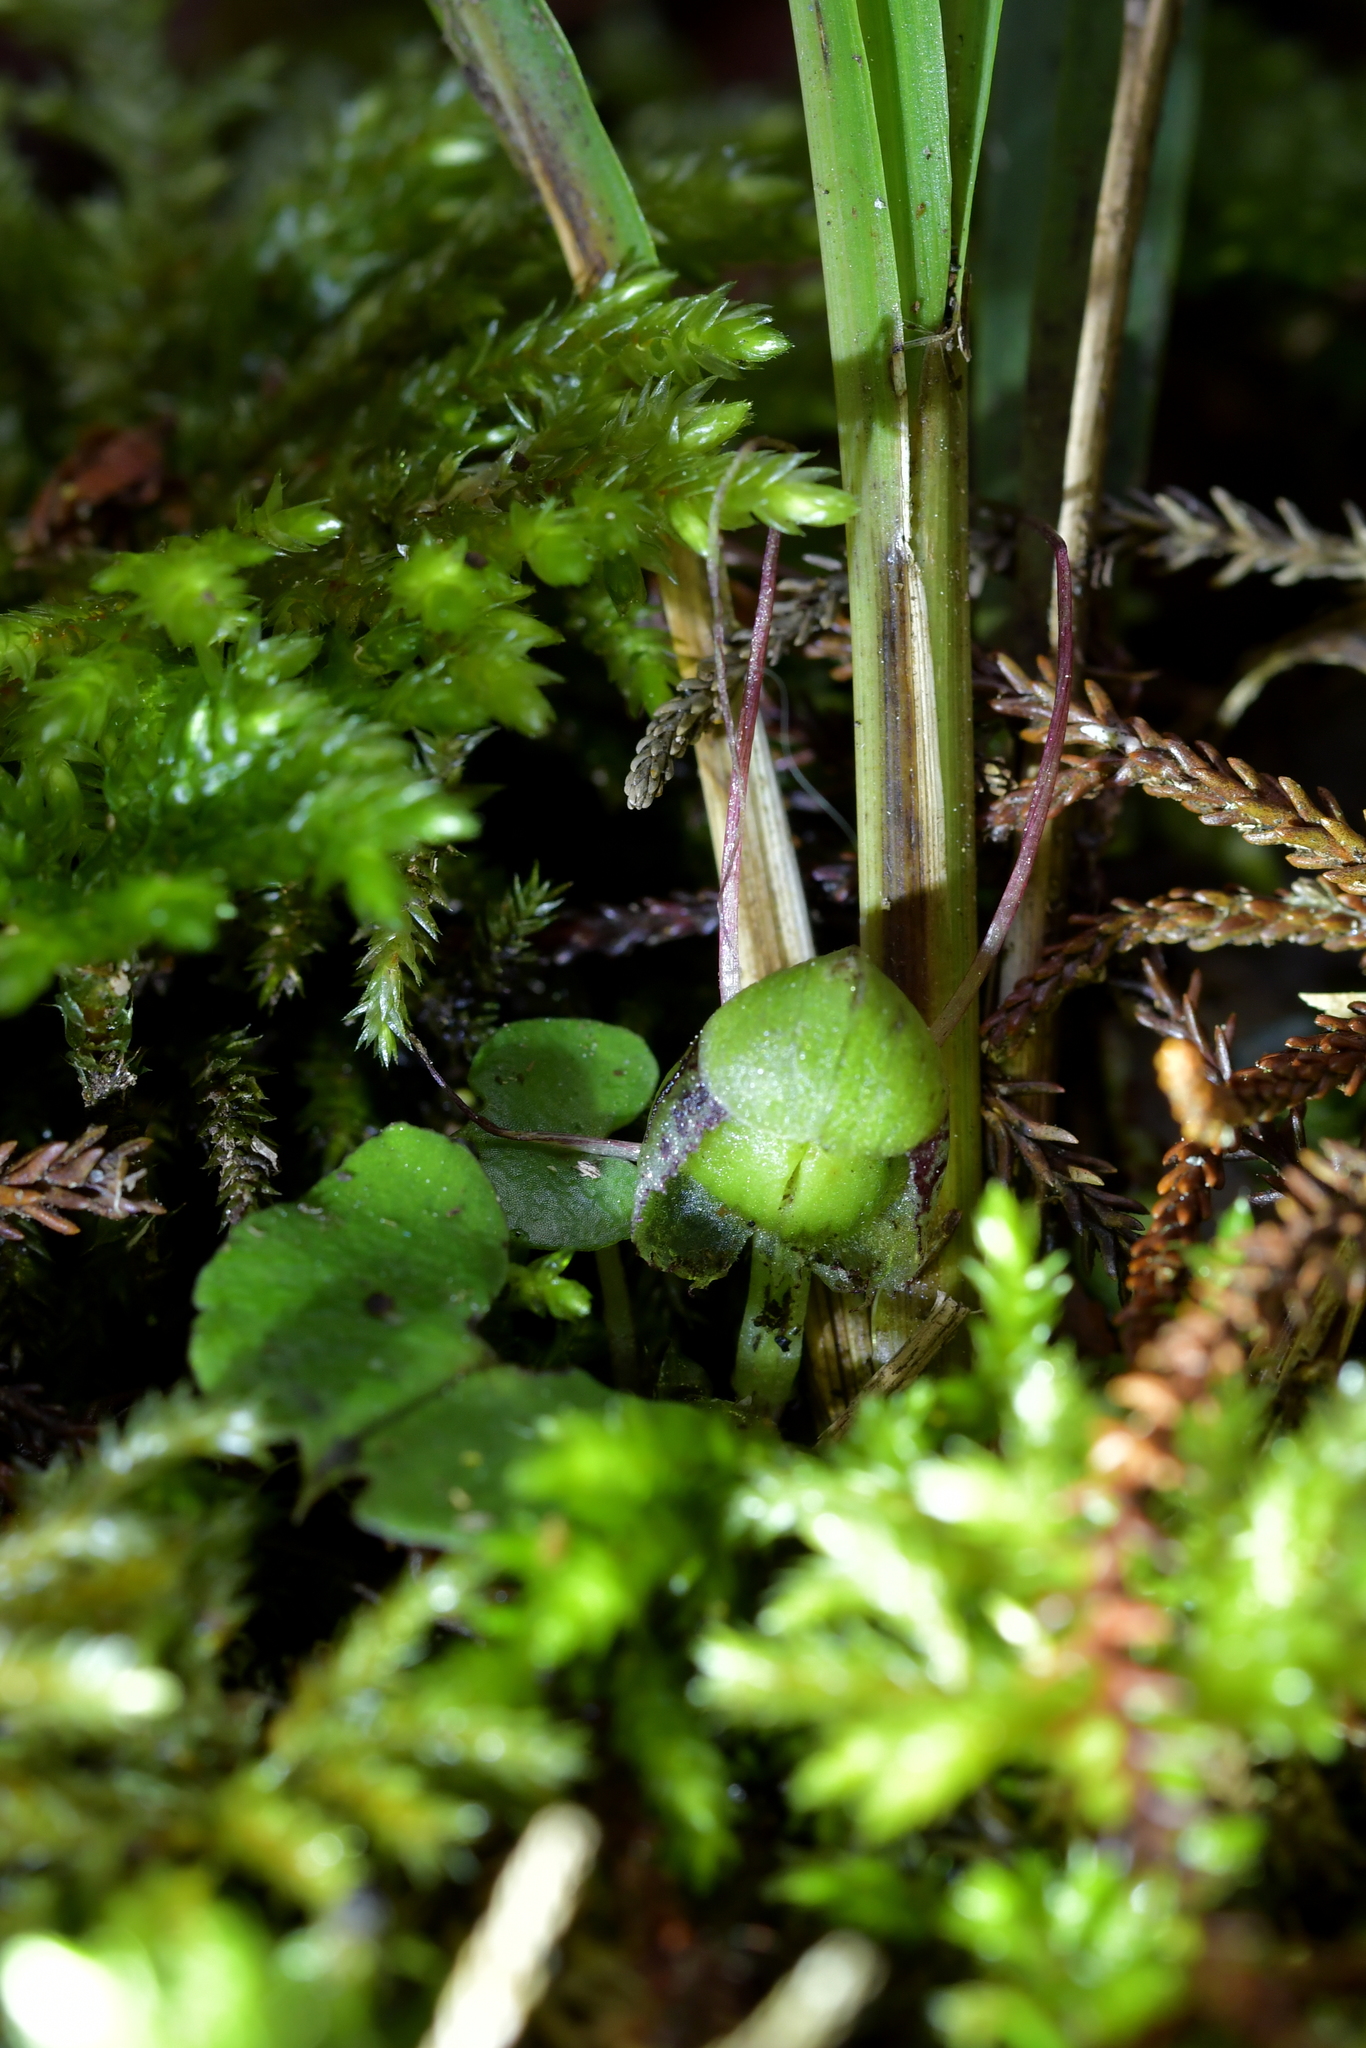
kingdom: Plantae
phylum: Tracheophyta
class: Liliopsida
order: Asparagales
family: Orchidaceae
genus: Corybas
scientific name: Corybas vitreus
